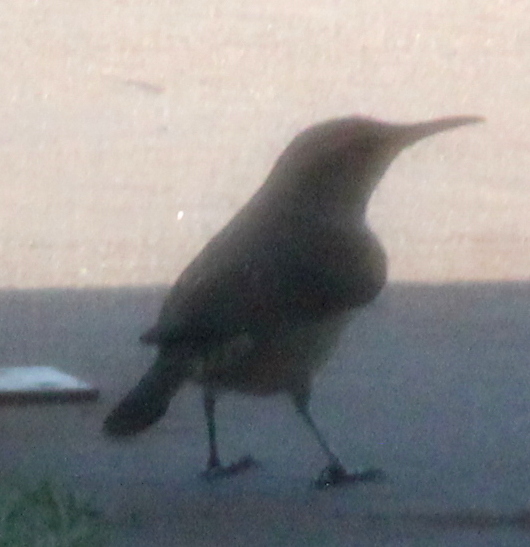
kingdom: Animalia
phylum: Chordata
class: Aves
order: Passeriformes
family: Troglodytidae
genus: Salpinctes
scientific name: Salpinctes obsoletus
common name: Rock wren
